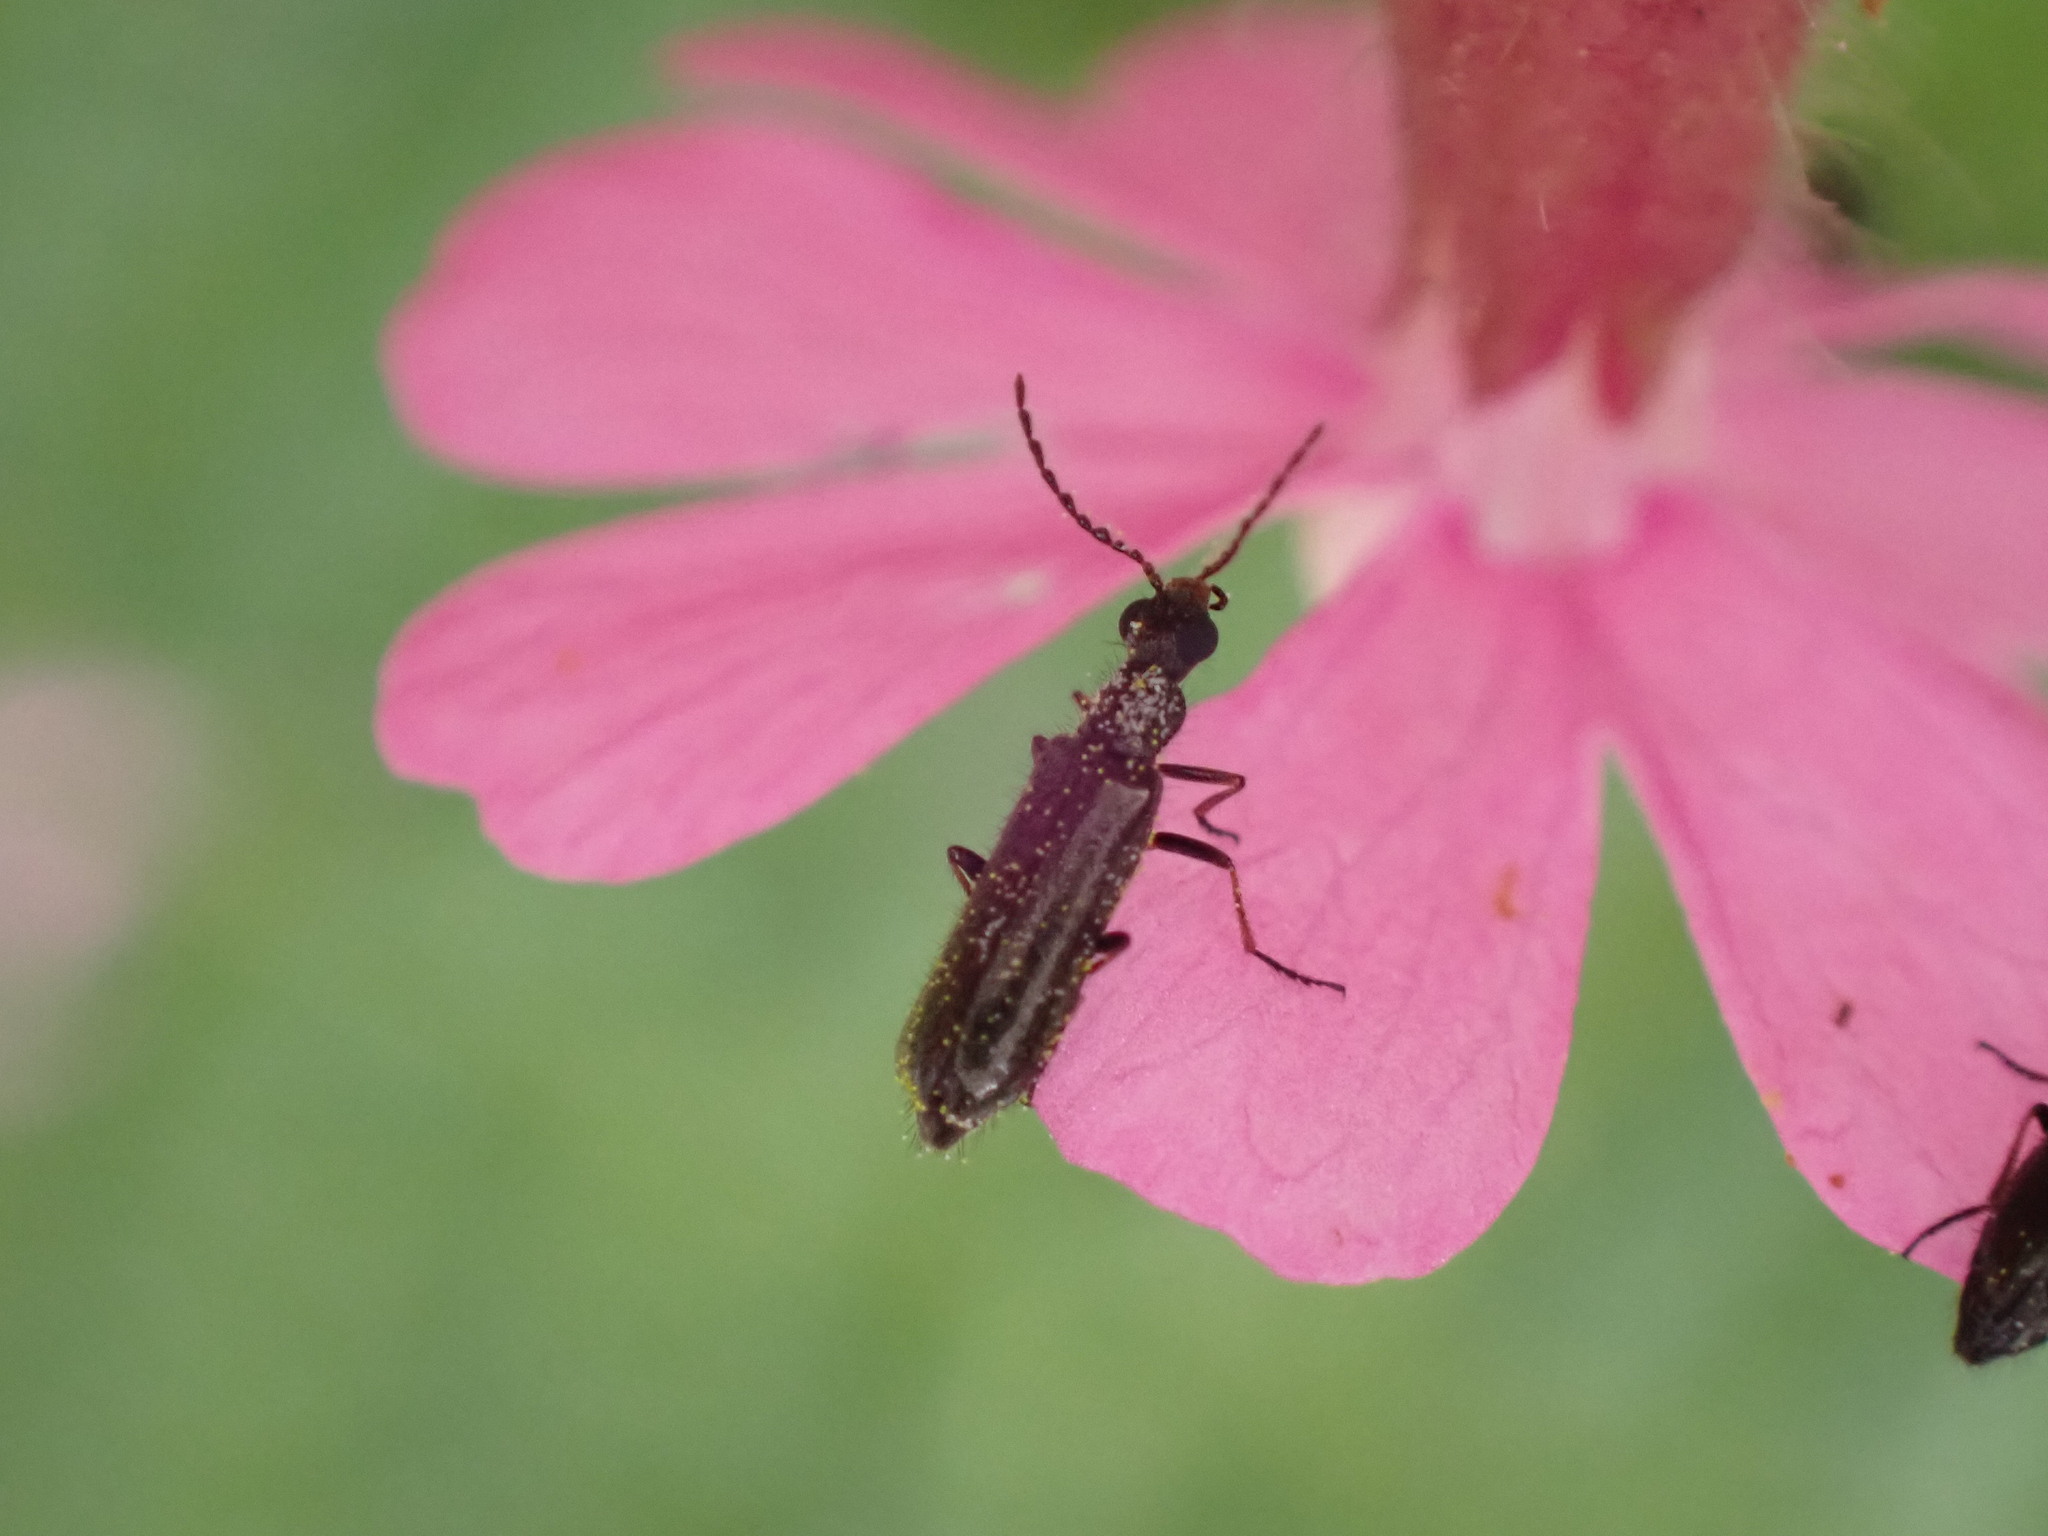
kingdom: Animalia
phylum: Arthropoda
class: Insecta
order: Coleoptera
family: Melyridae
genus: Dasytes
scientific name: Dasytes plumbeus
